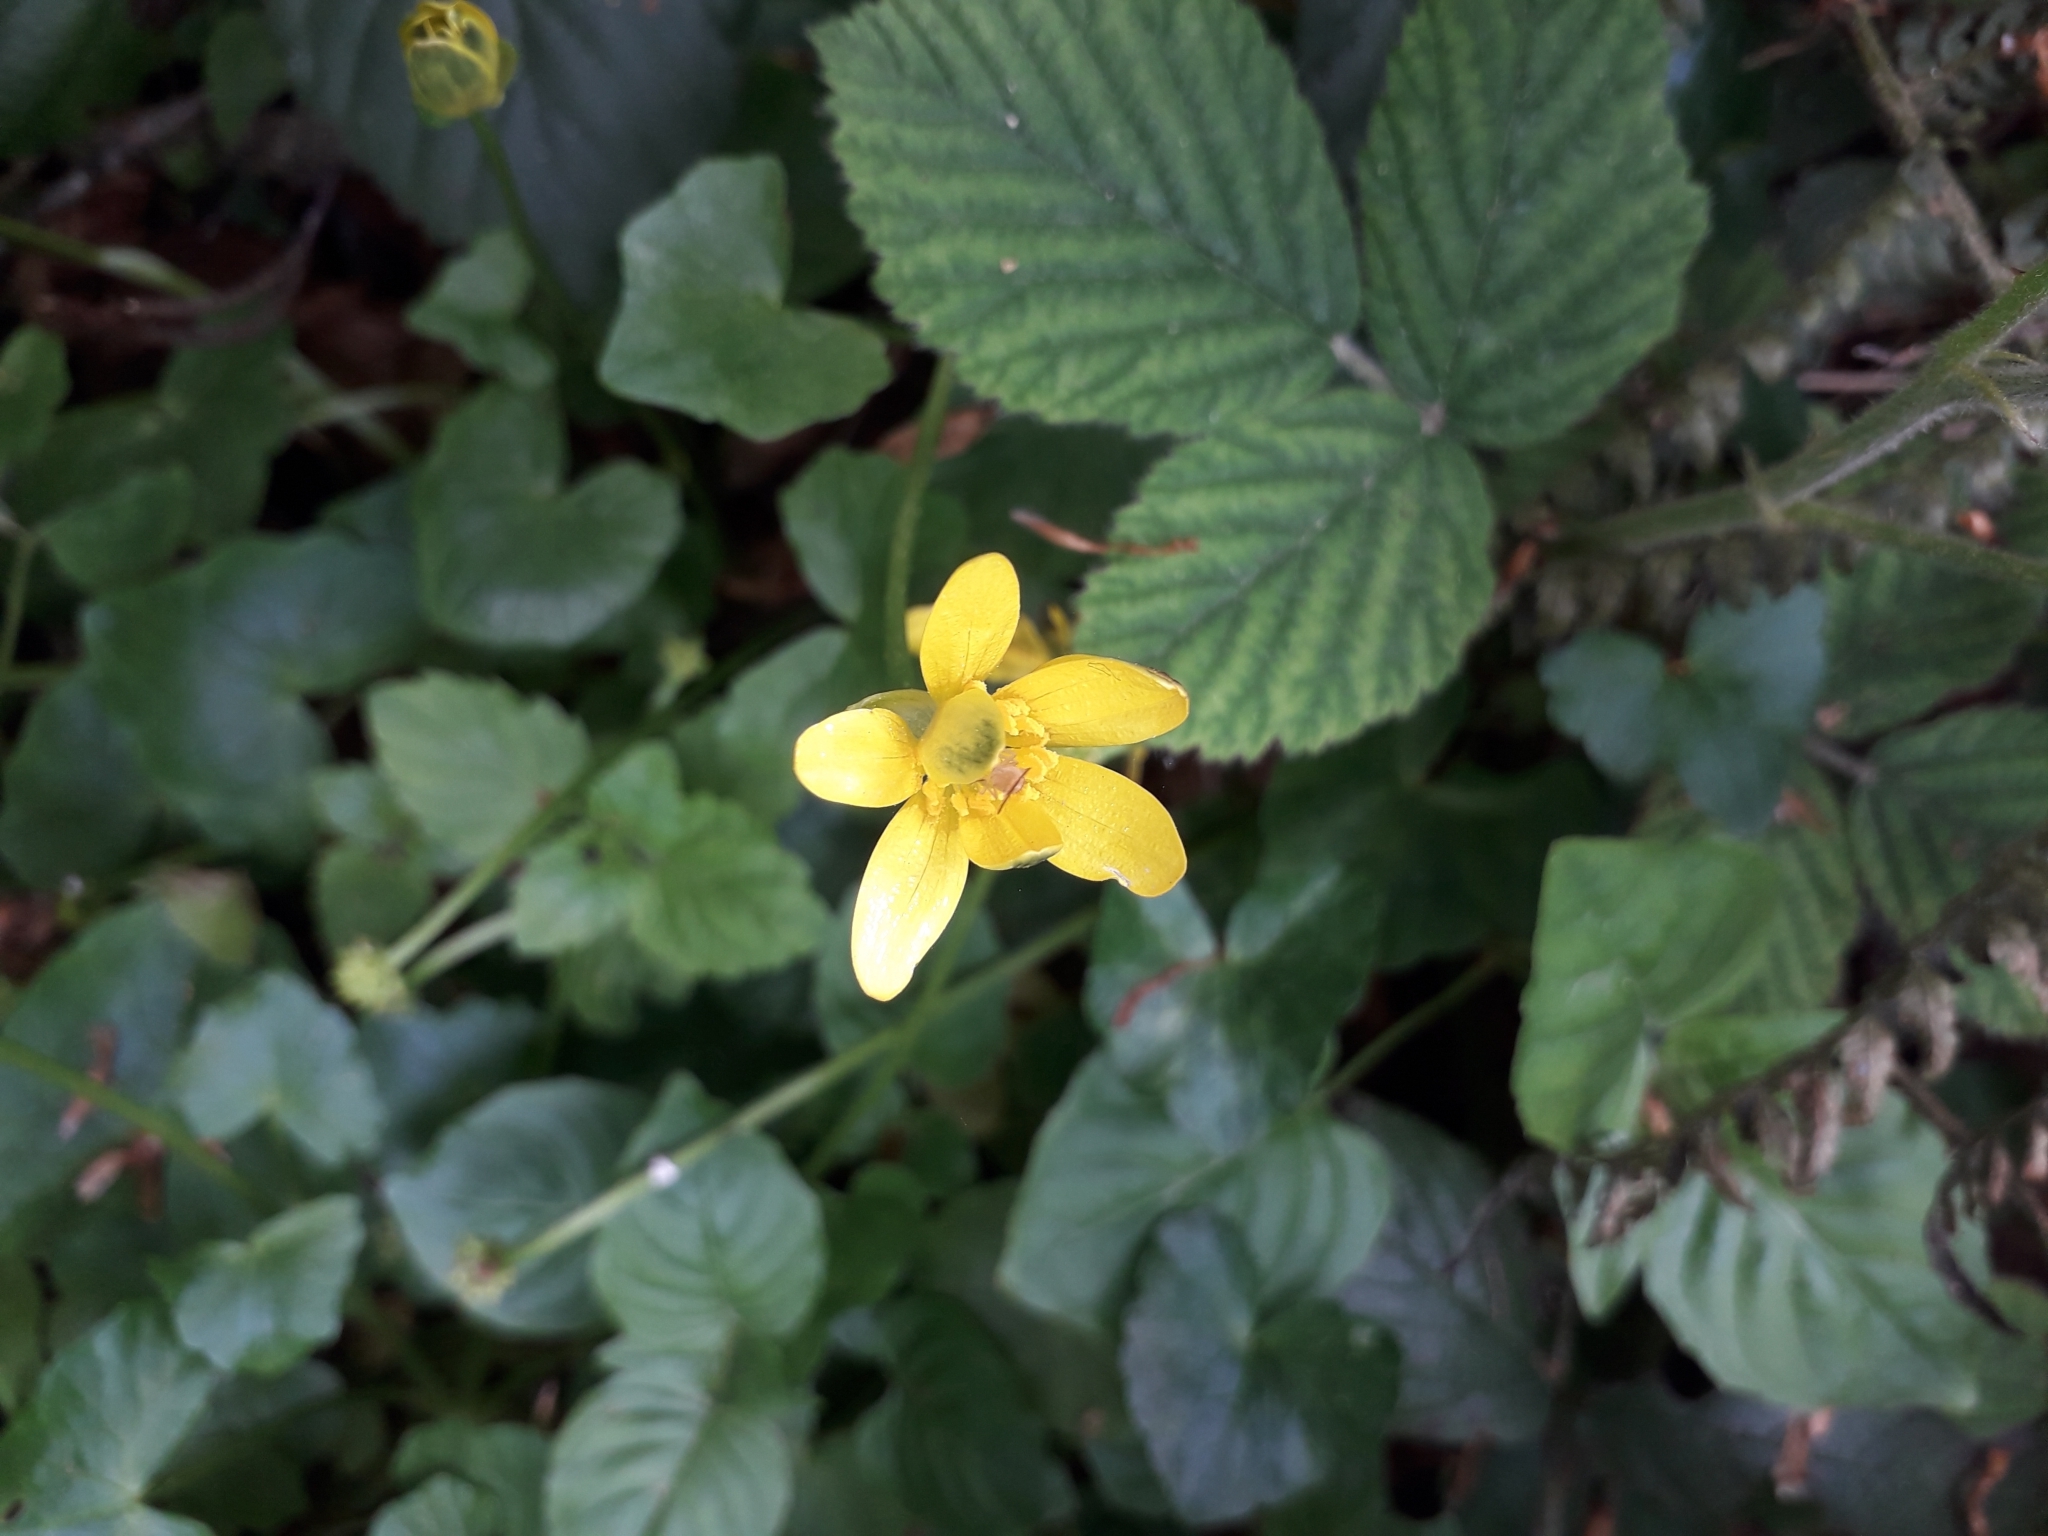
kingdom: Plantae
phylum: Tracheophyta
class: Magnoliopsida
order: Ranunculales
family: Ranunculaceae
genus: Ficaria
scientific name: Ficaria verna
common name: Lesser celandine
